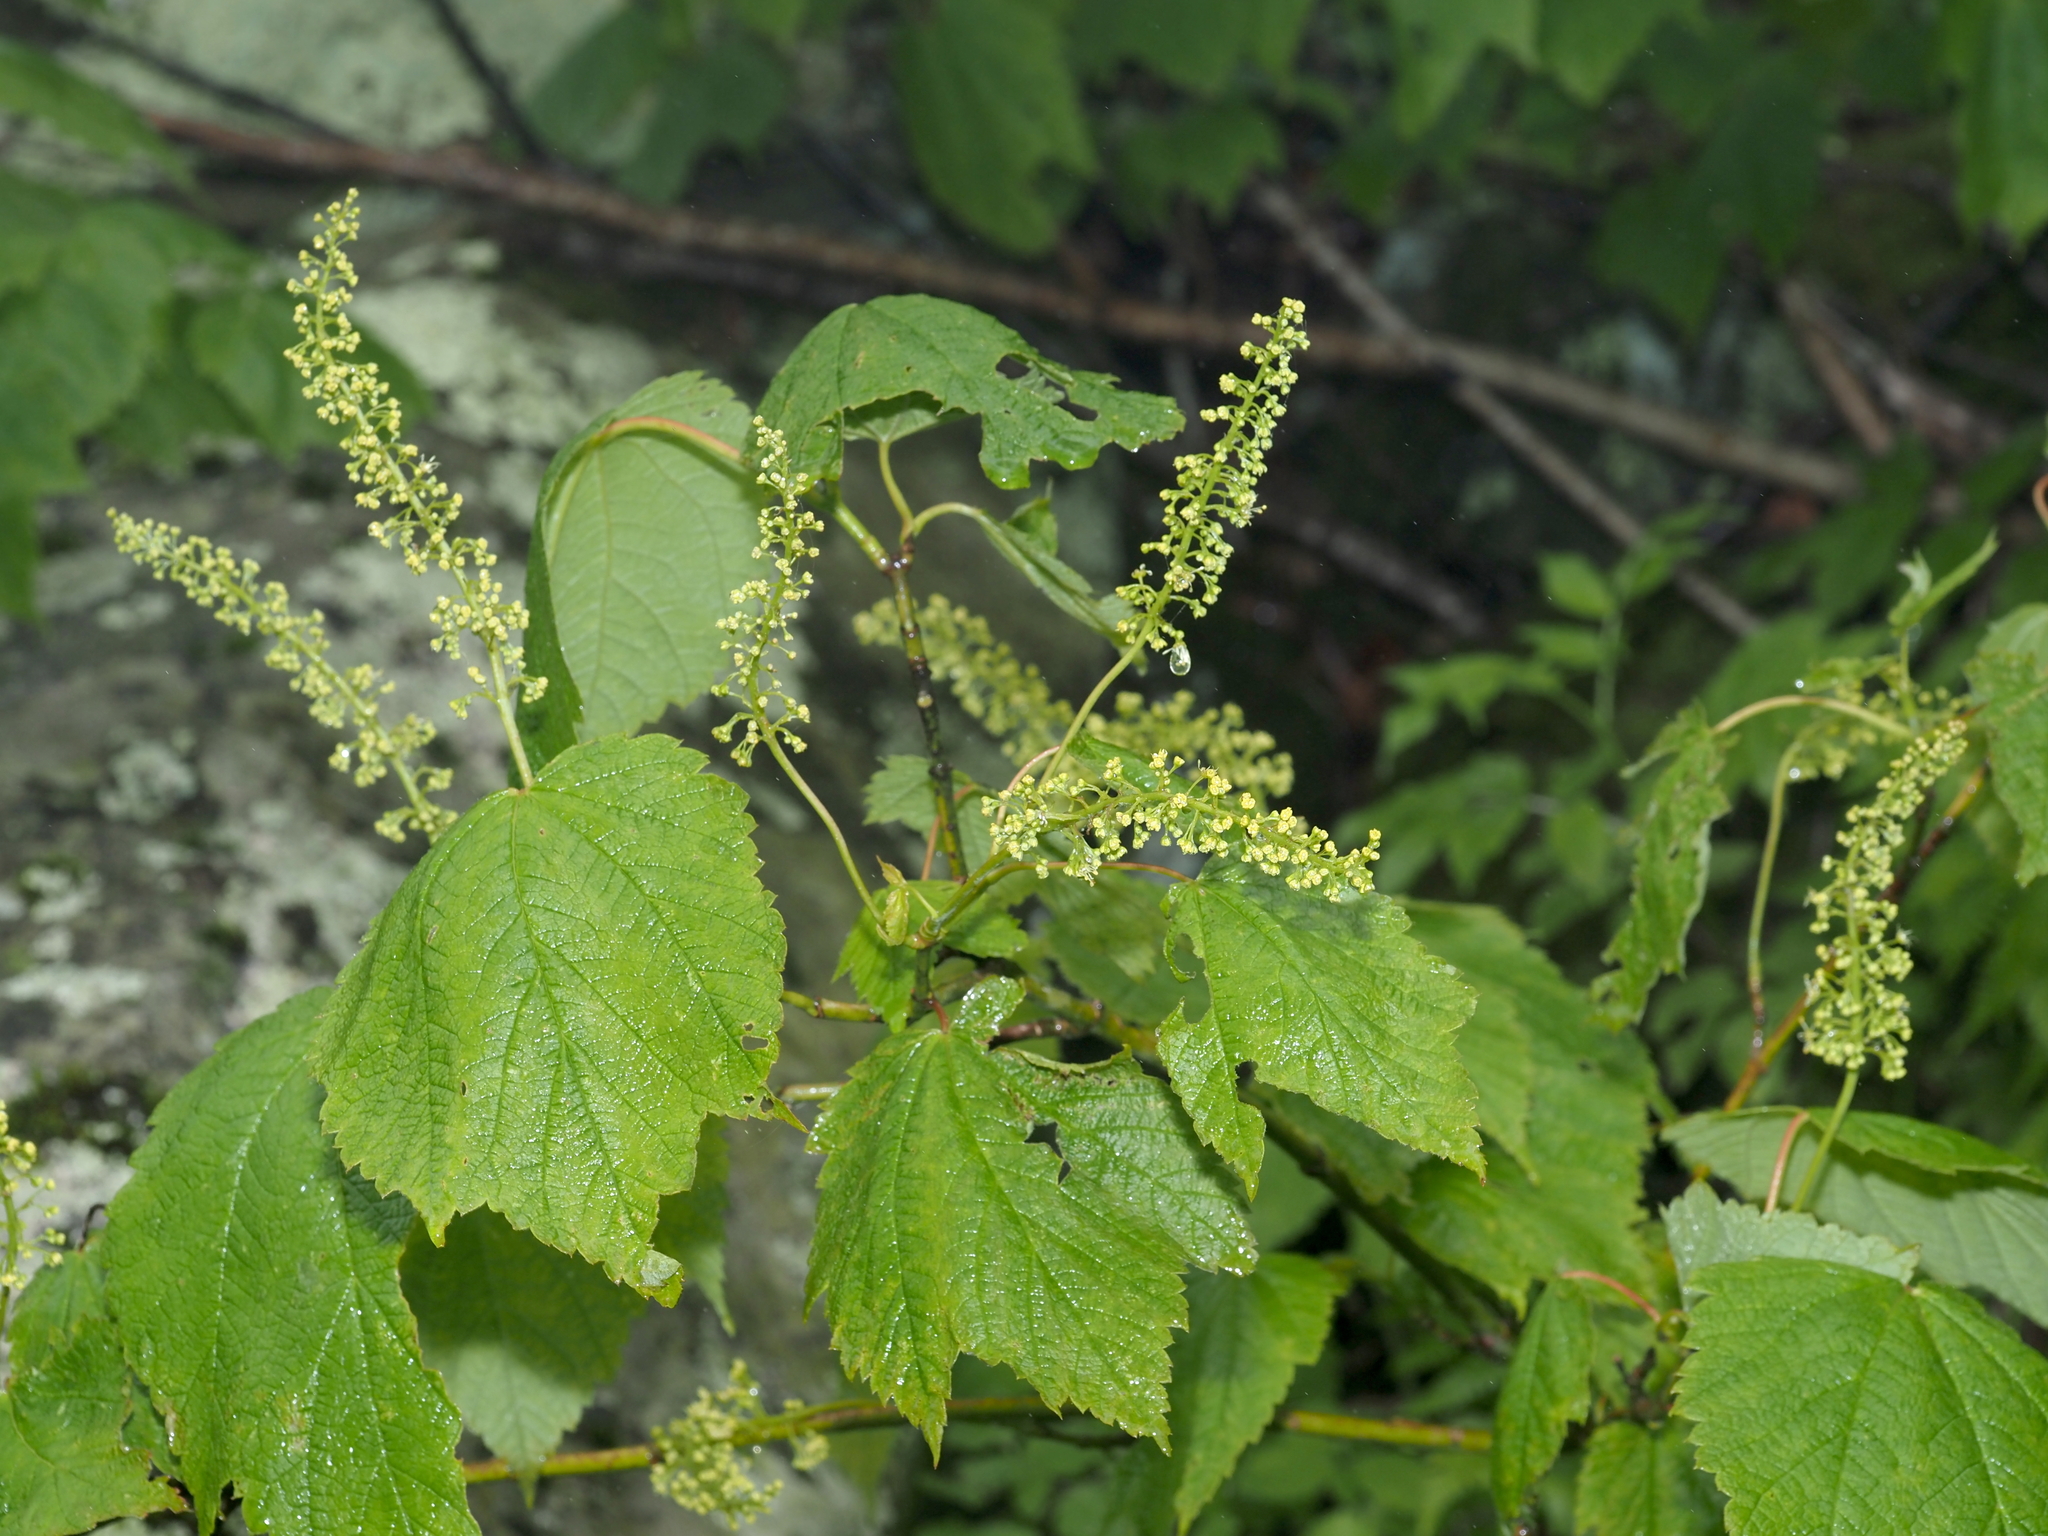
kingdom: Plantae
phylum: Tracheophyta
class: Magnoliopsida
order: Sapindales
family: Sapindaceae
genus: Acer
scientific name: Acer spicatum
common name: Mountain maple
